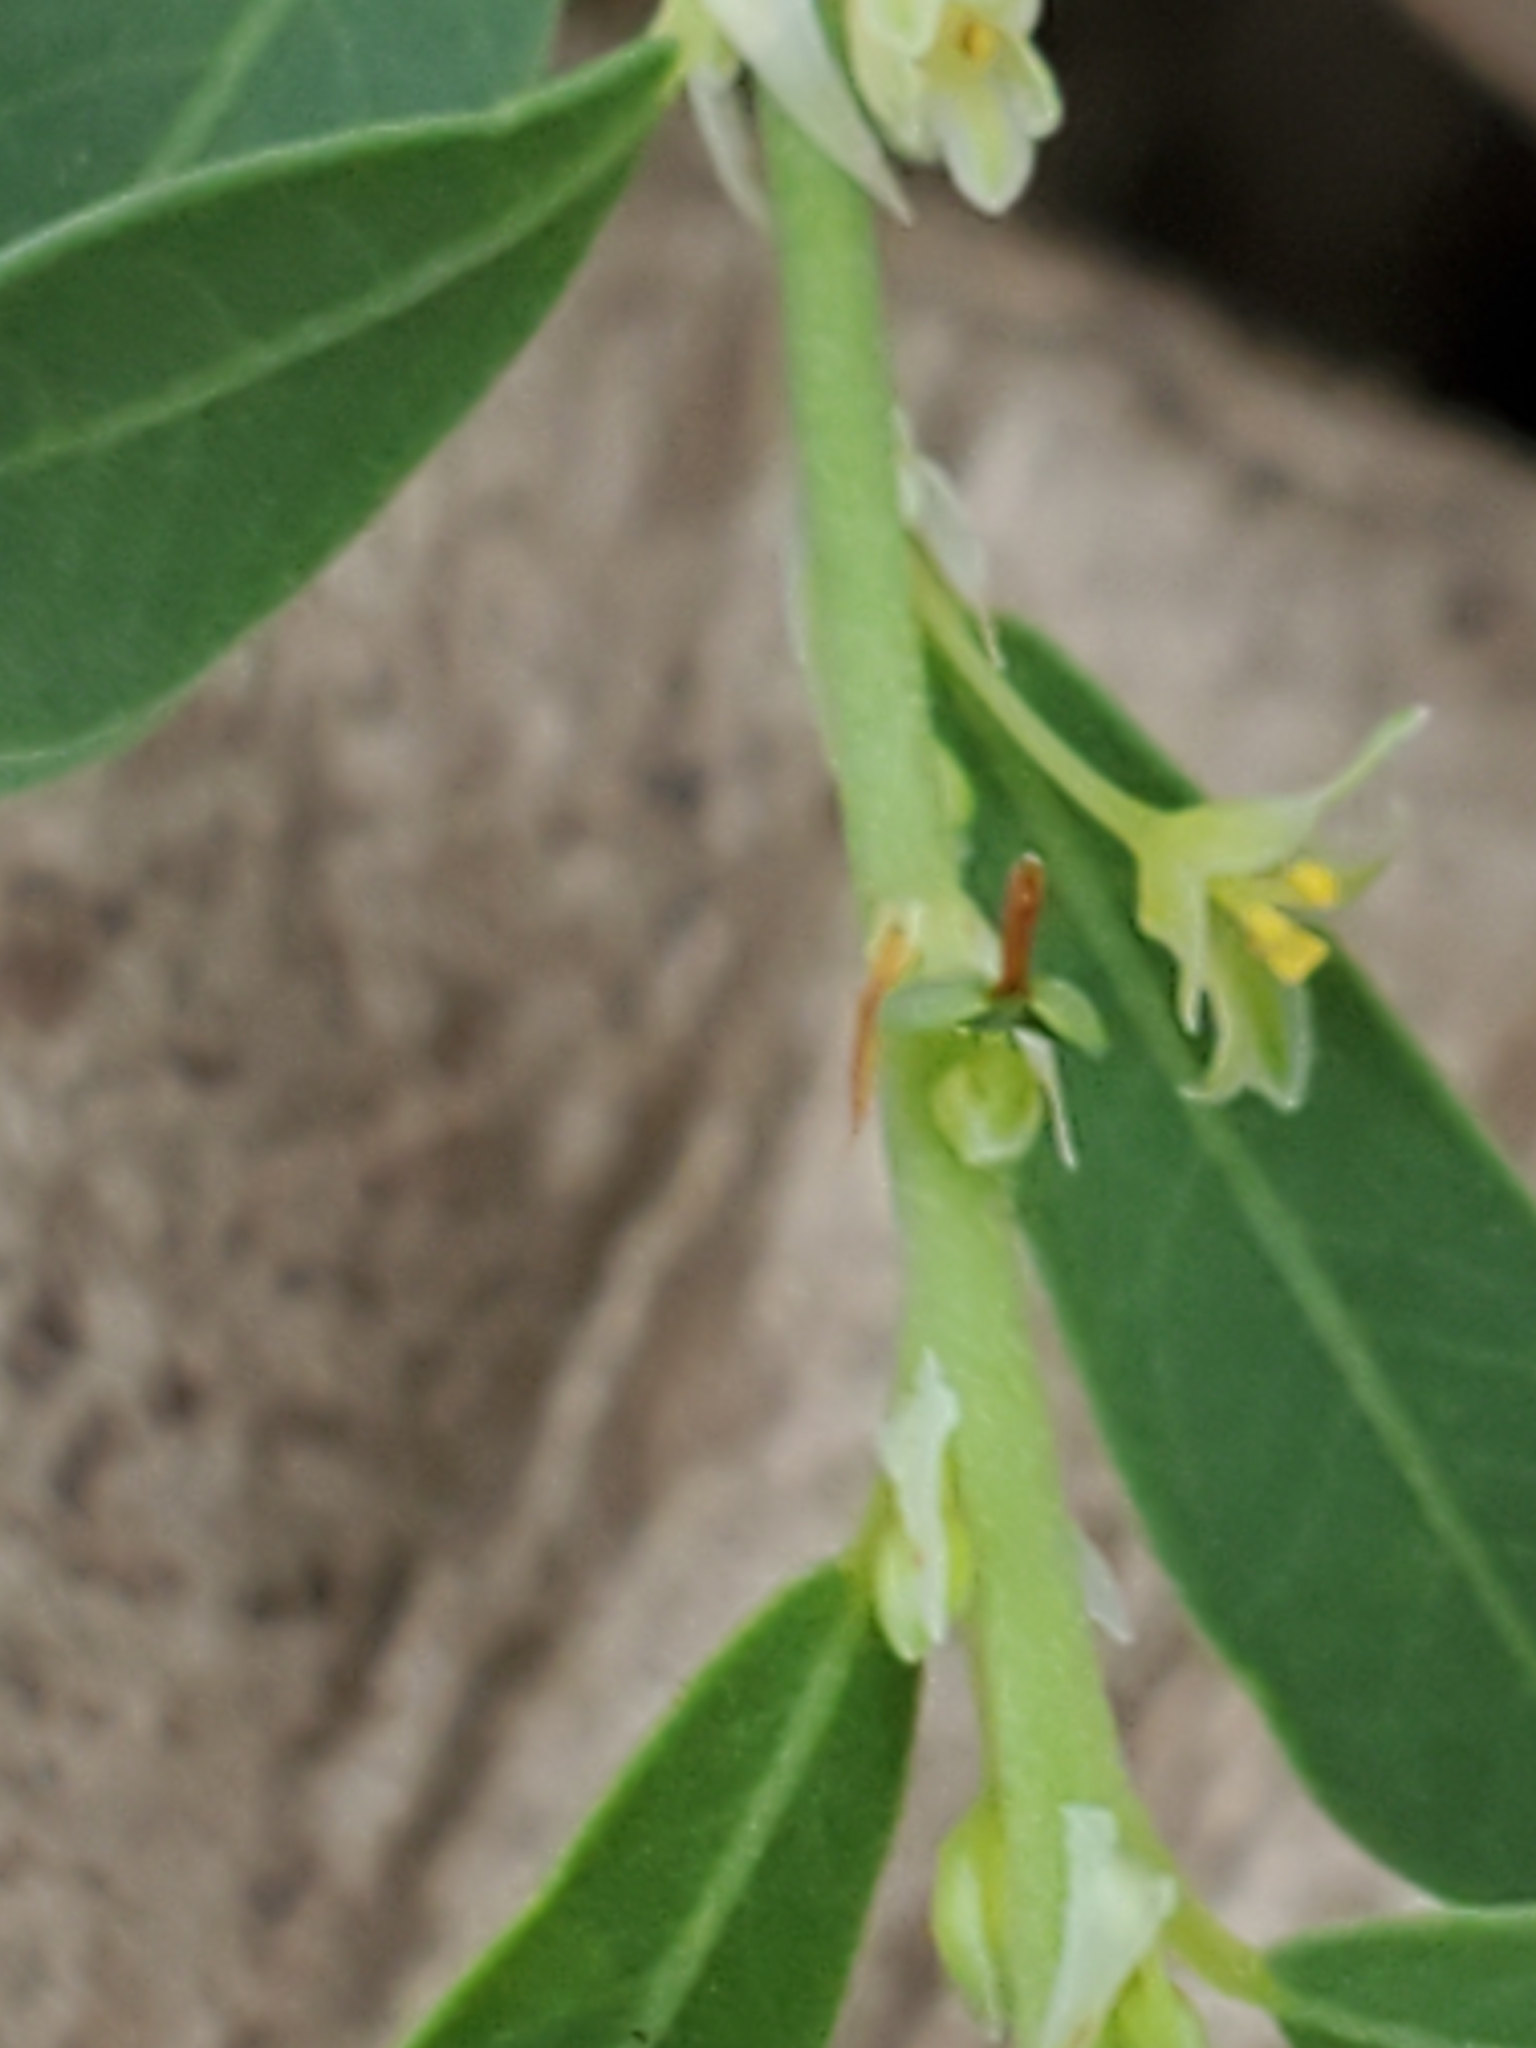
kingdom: Plantae
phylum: Tracheophyta
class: Magnoliopsida
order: Malpighiales
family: Phyllanthaceae
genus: Phyllanthus
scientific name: Phyllanthus polygonoides
